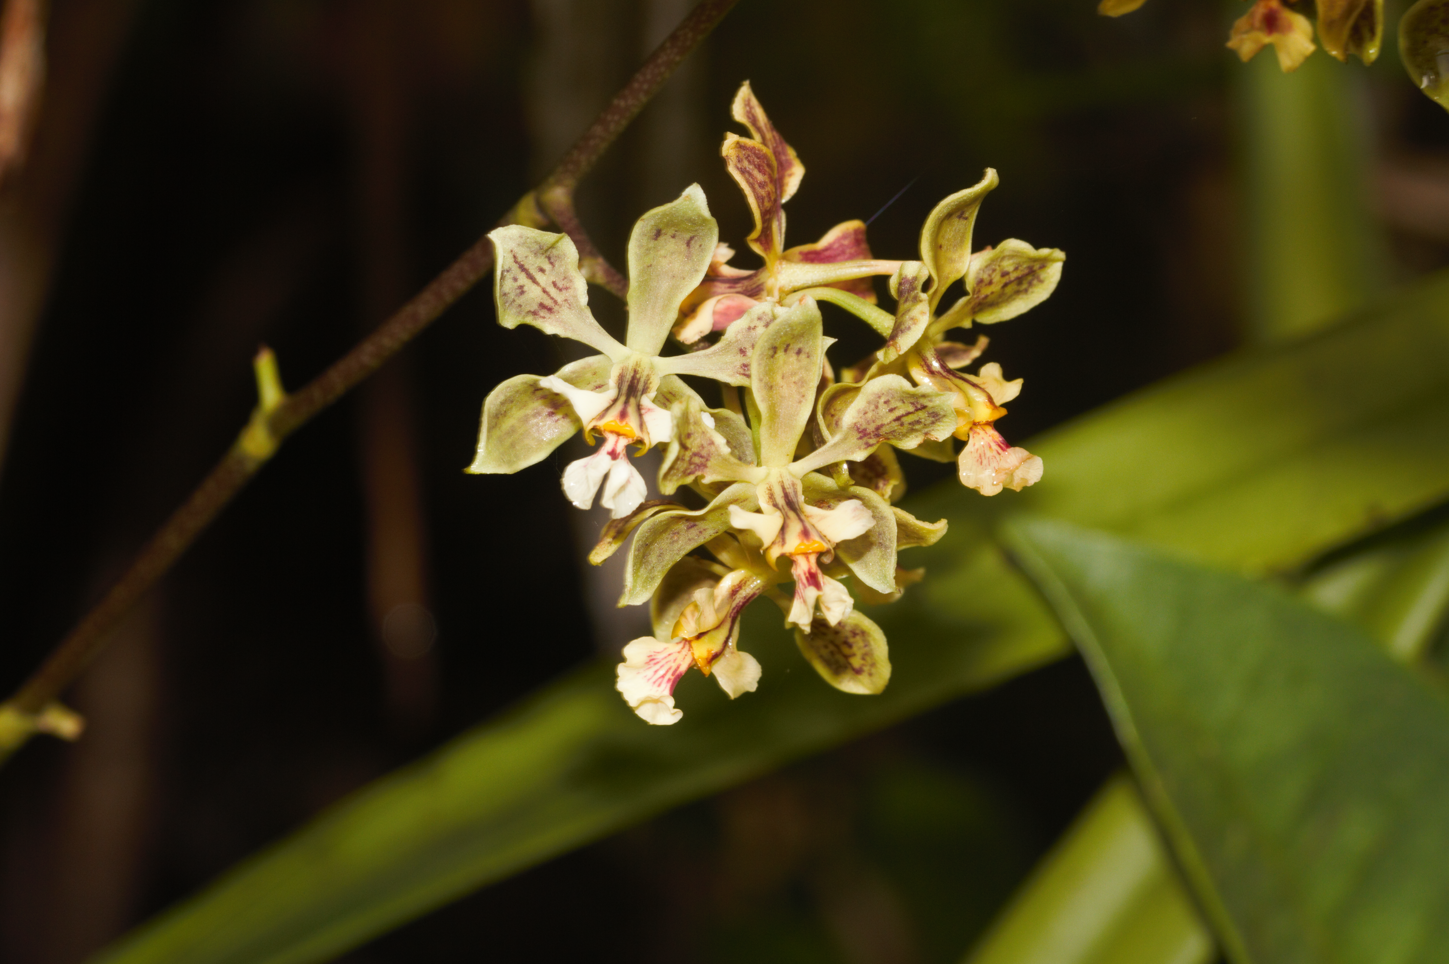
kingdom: Plantae
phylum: Tracheophyta
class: Liliopsida
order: Asparagales
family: Orchidaceae
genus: Encyclia
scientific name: Encyclia granitica
